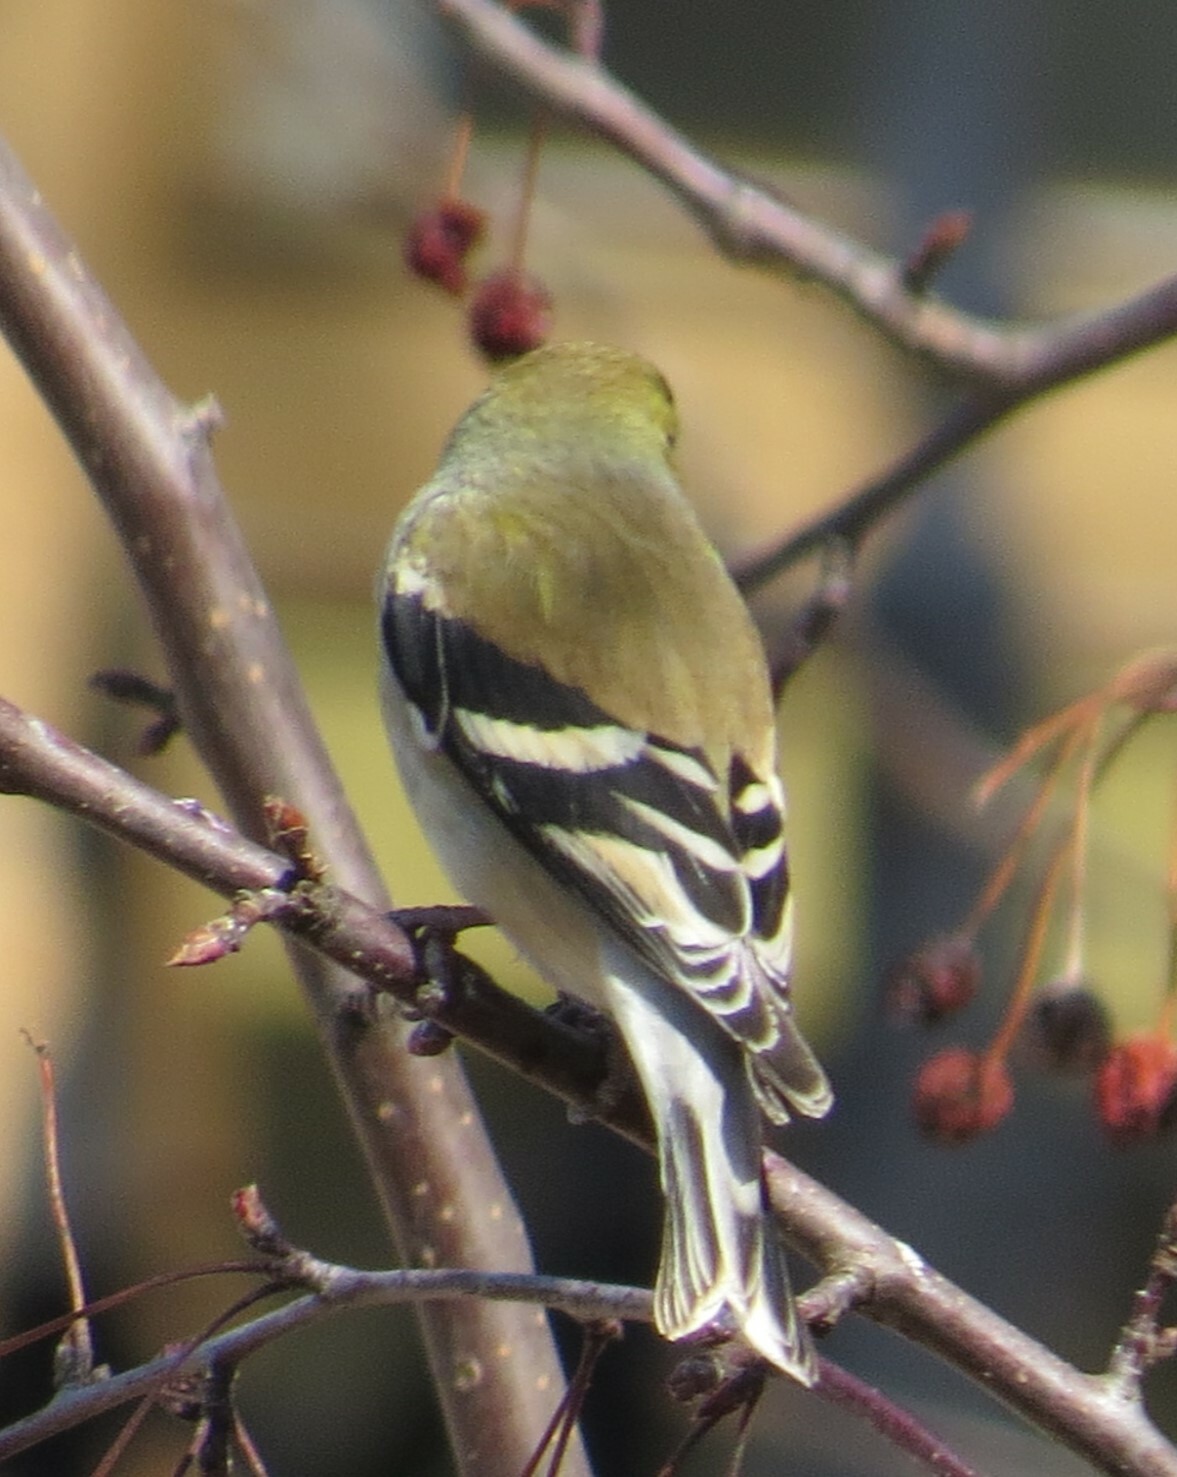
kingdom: Animalia
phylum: Chordata
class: Aves
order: Passeriformes
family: Fringillidae
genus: Spinus
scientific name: Spinus tristis
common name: American goldfinch
